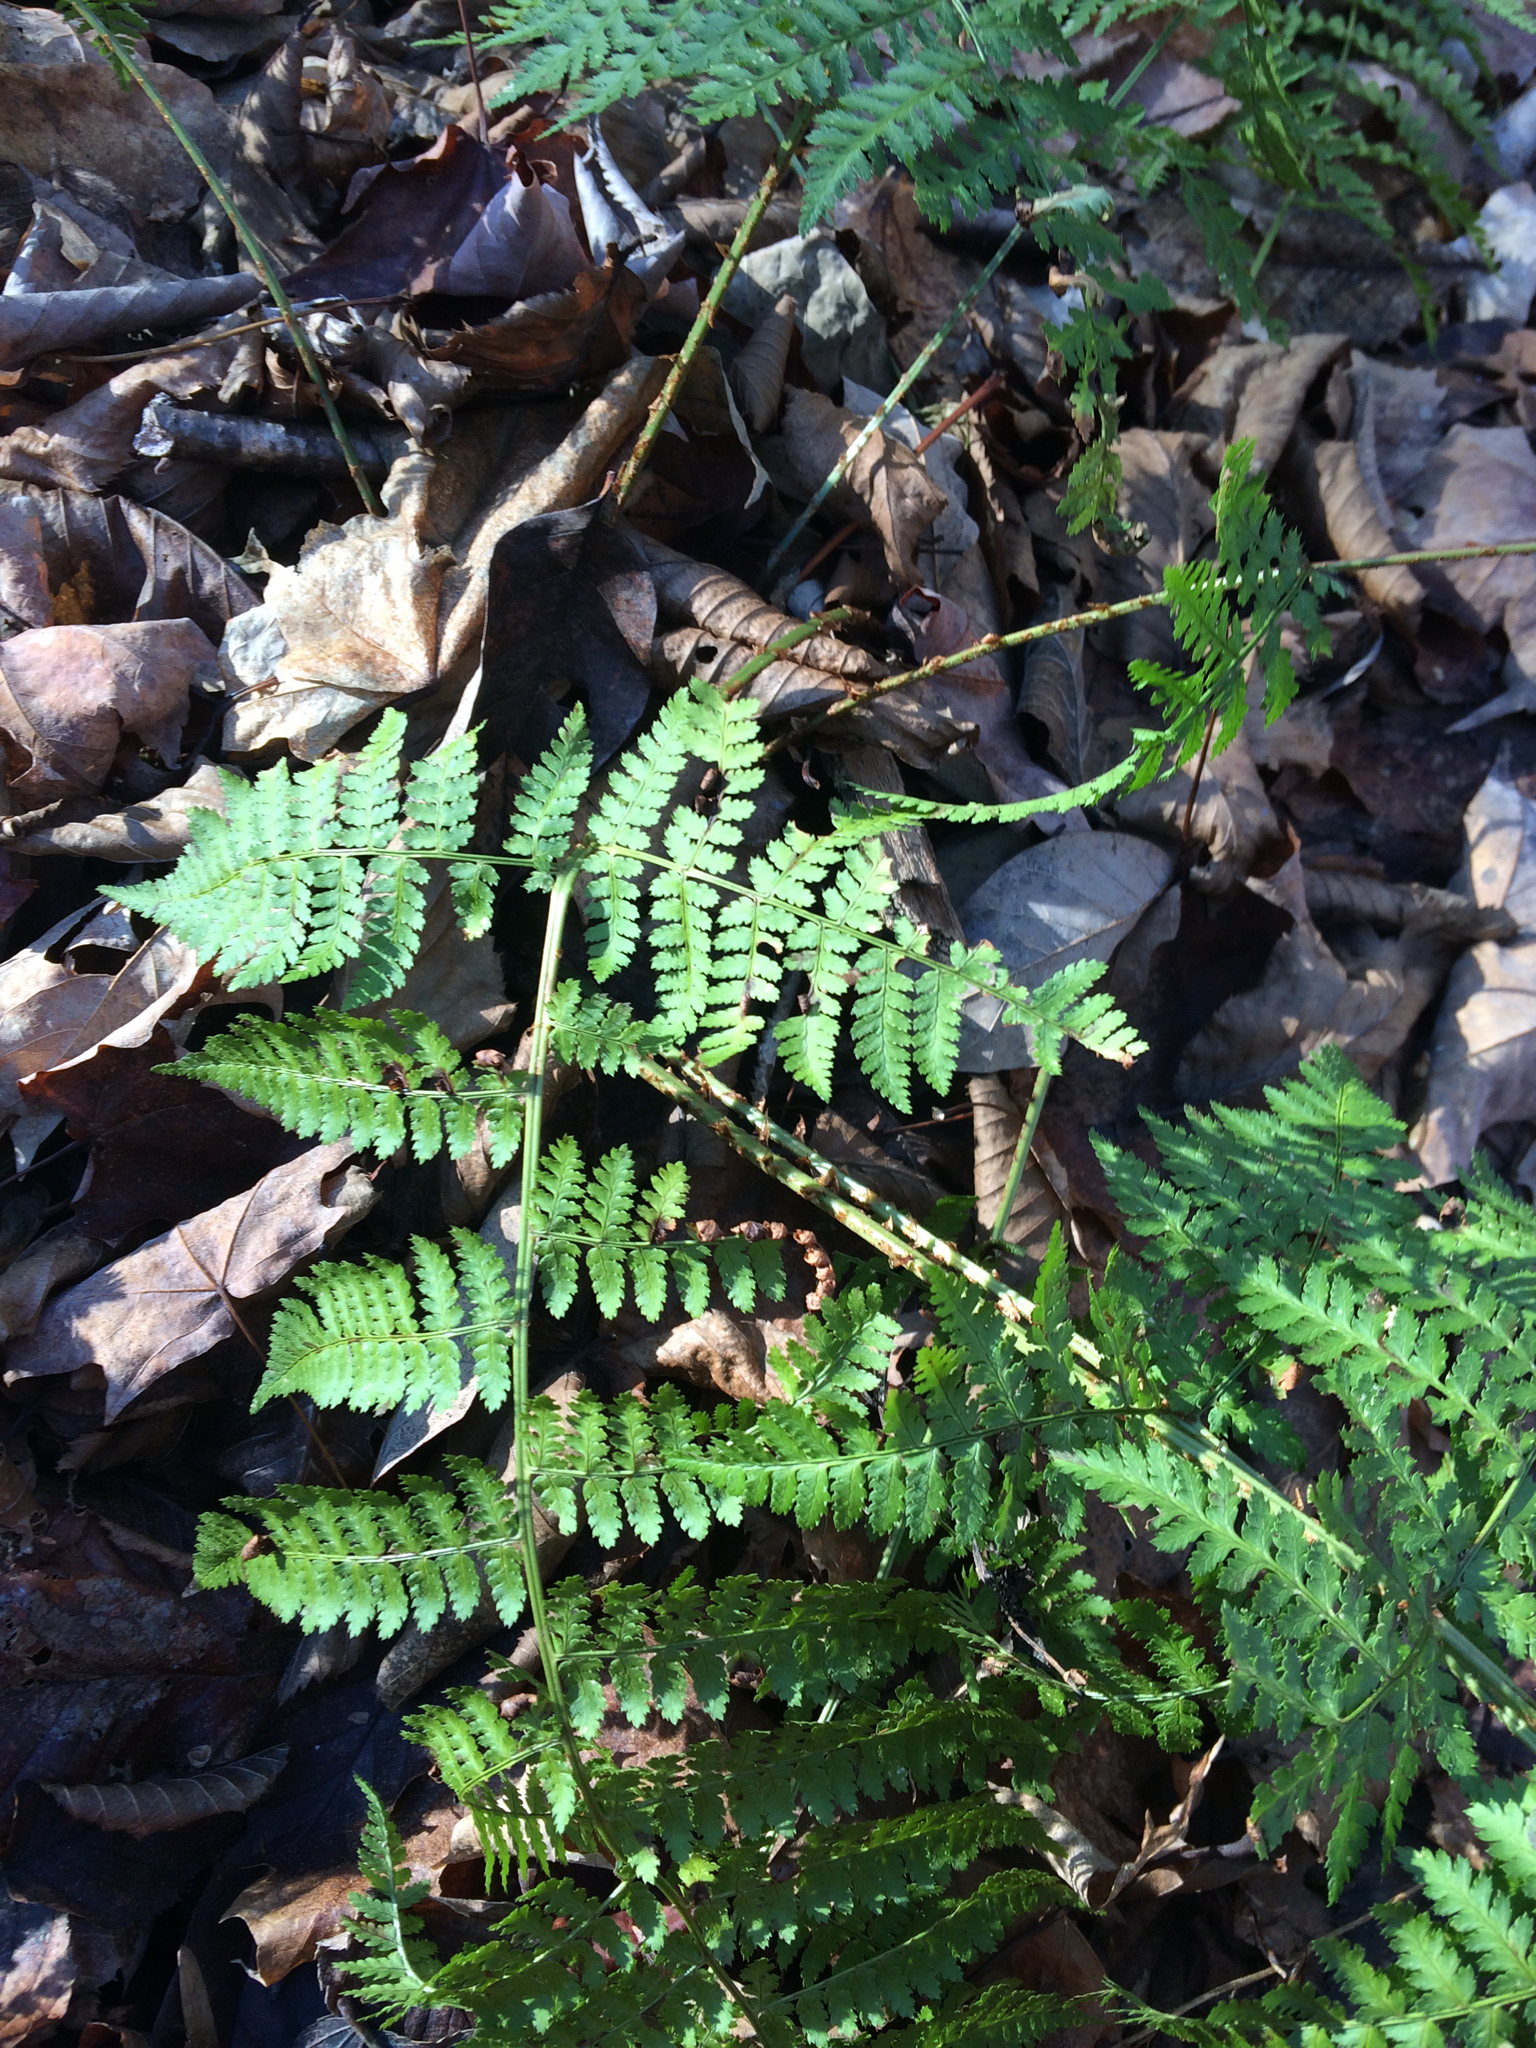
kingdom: Plantae
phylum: Tracheophyta
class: Polypodiopsida
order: Polypodiales
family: Dryopteridaceae
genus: Dryopteris
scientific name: Dryopteris intermedia
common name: Evergreen wood fern
